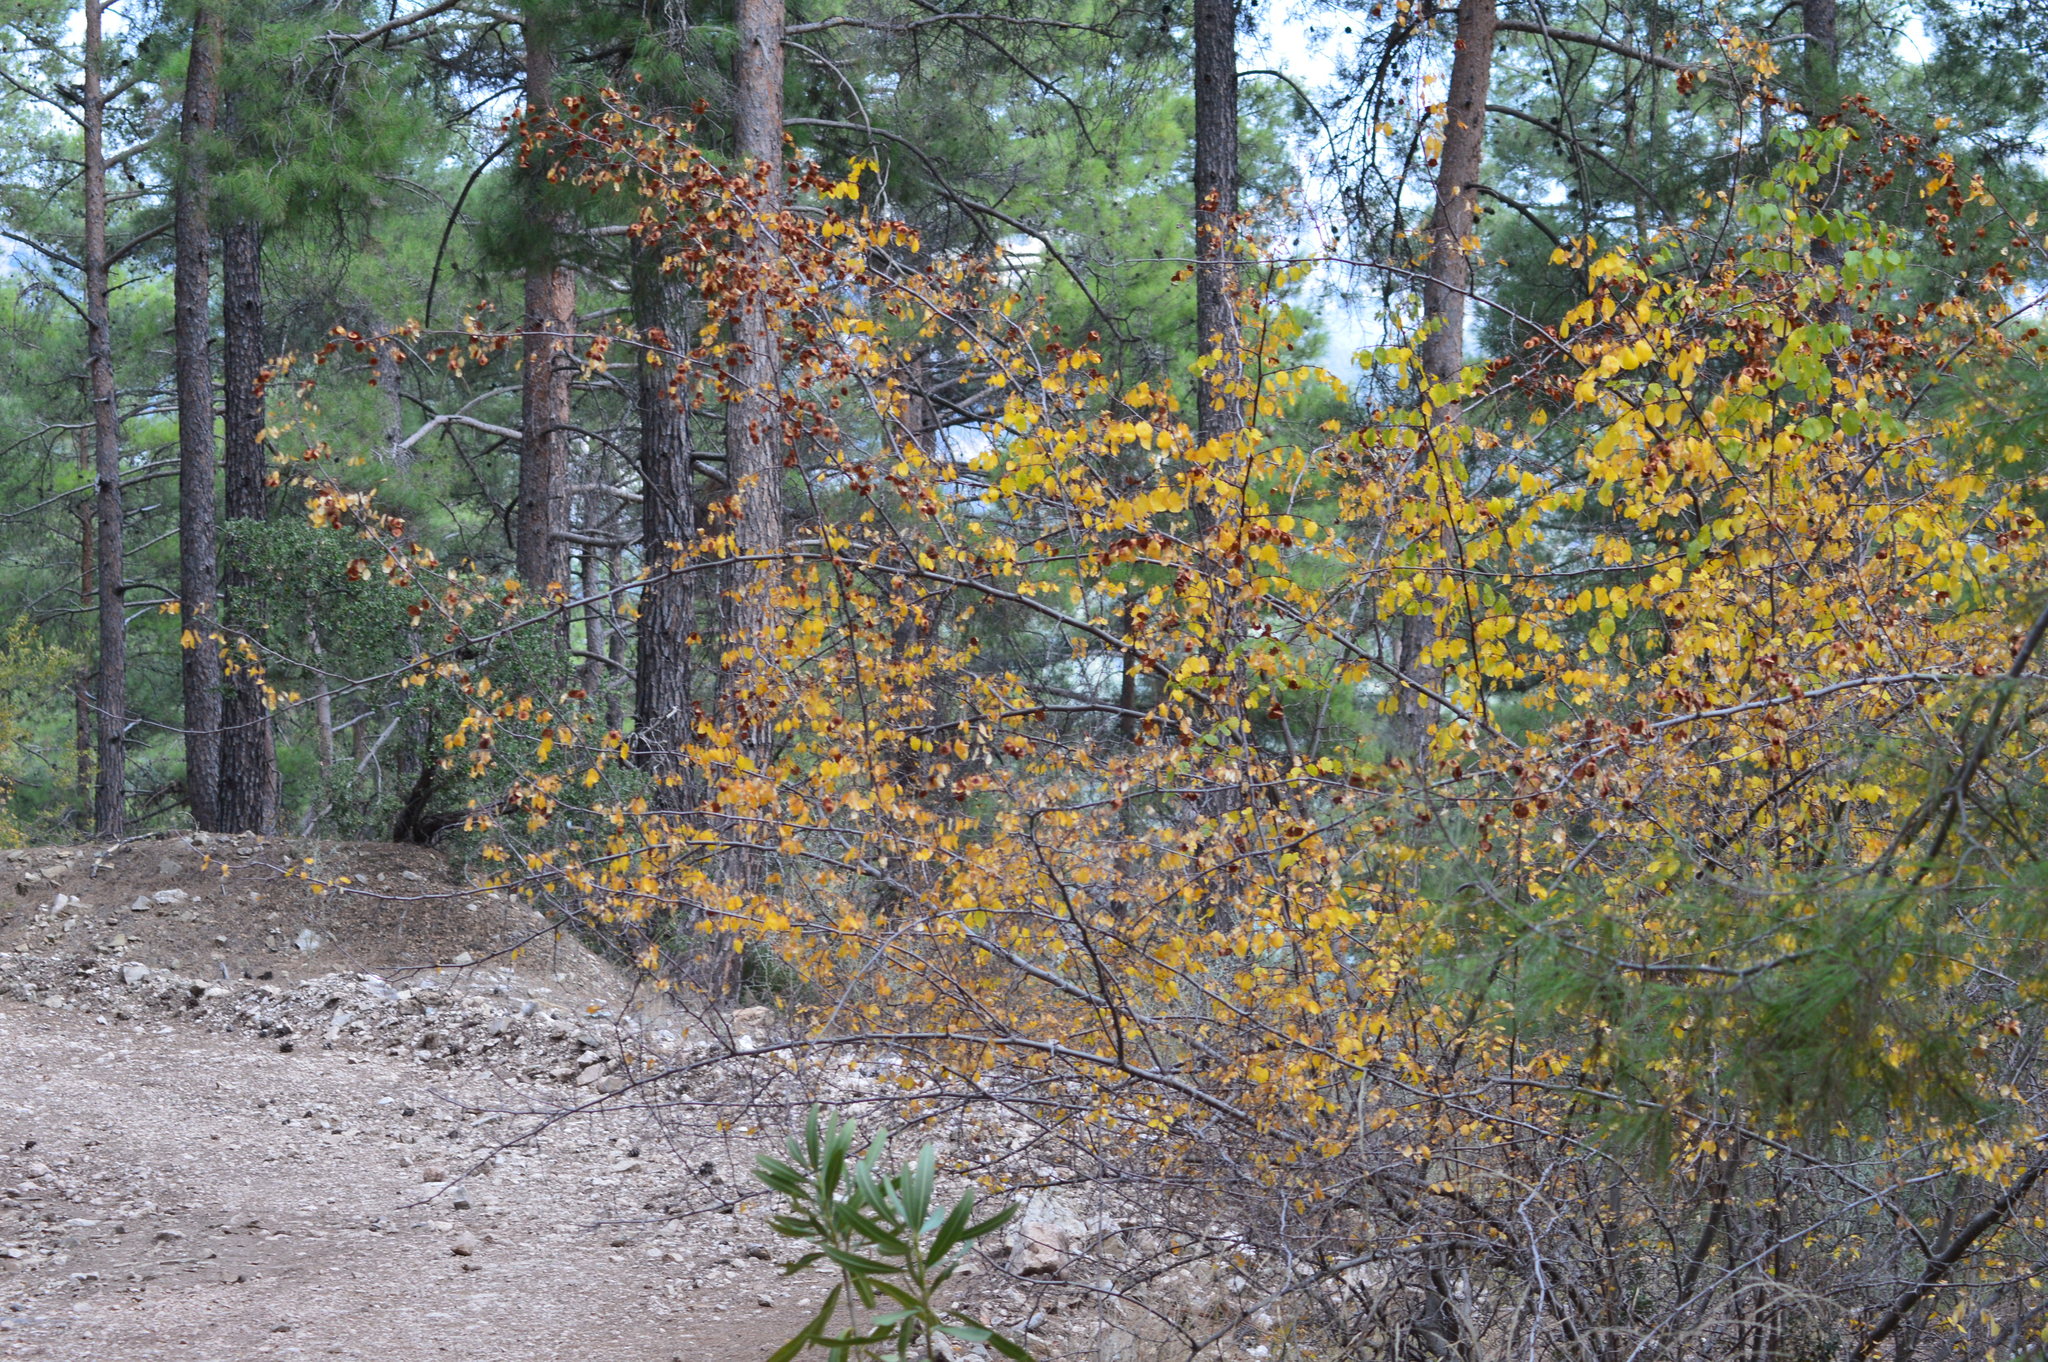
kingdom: Plantae
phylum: Tracheophyta
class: Magnoliopsida
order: Rosales
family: Rhamnaceae
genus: Paliurus
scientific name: Paliurus spina-christi
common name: Jeruselem thorn
